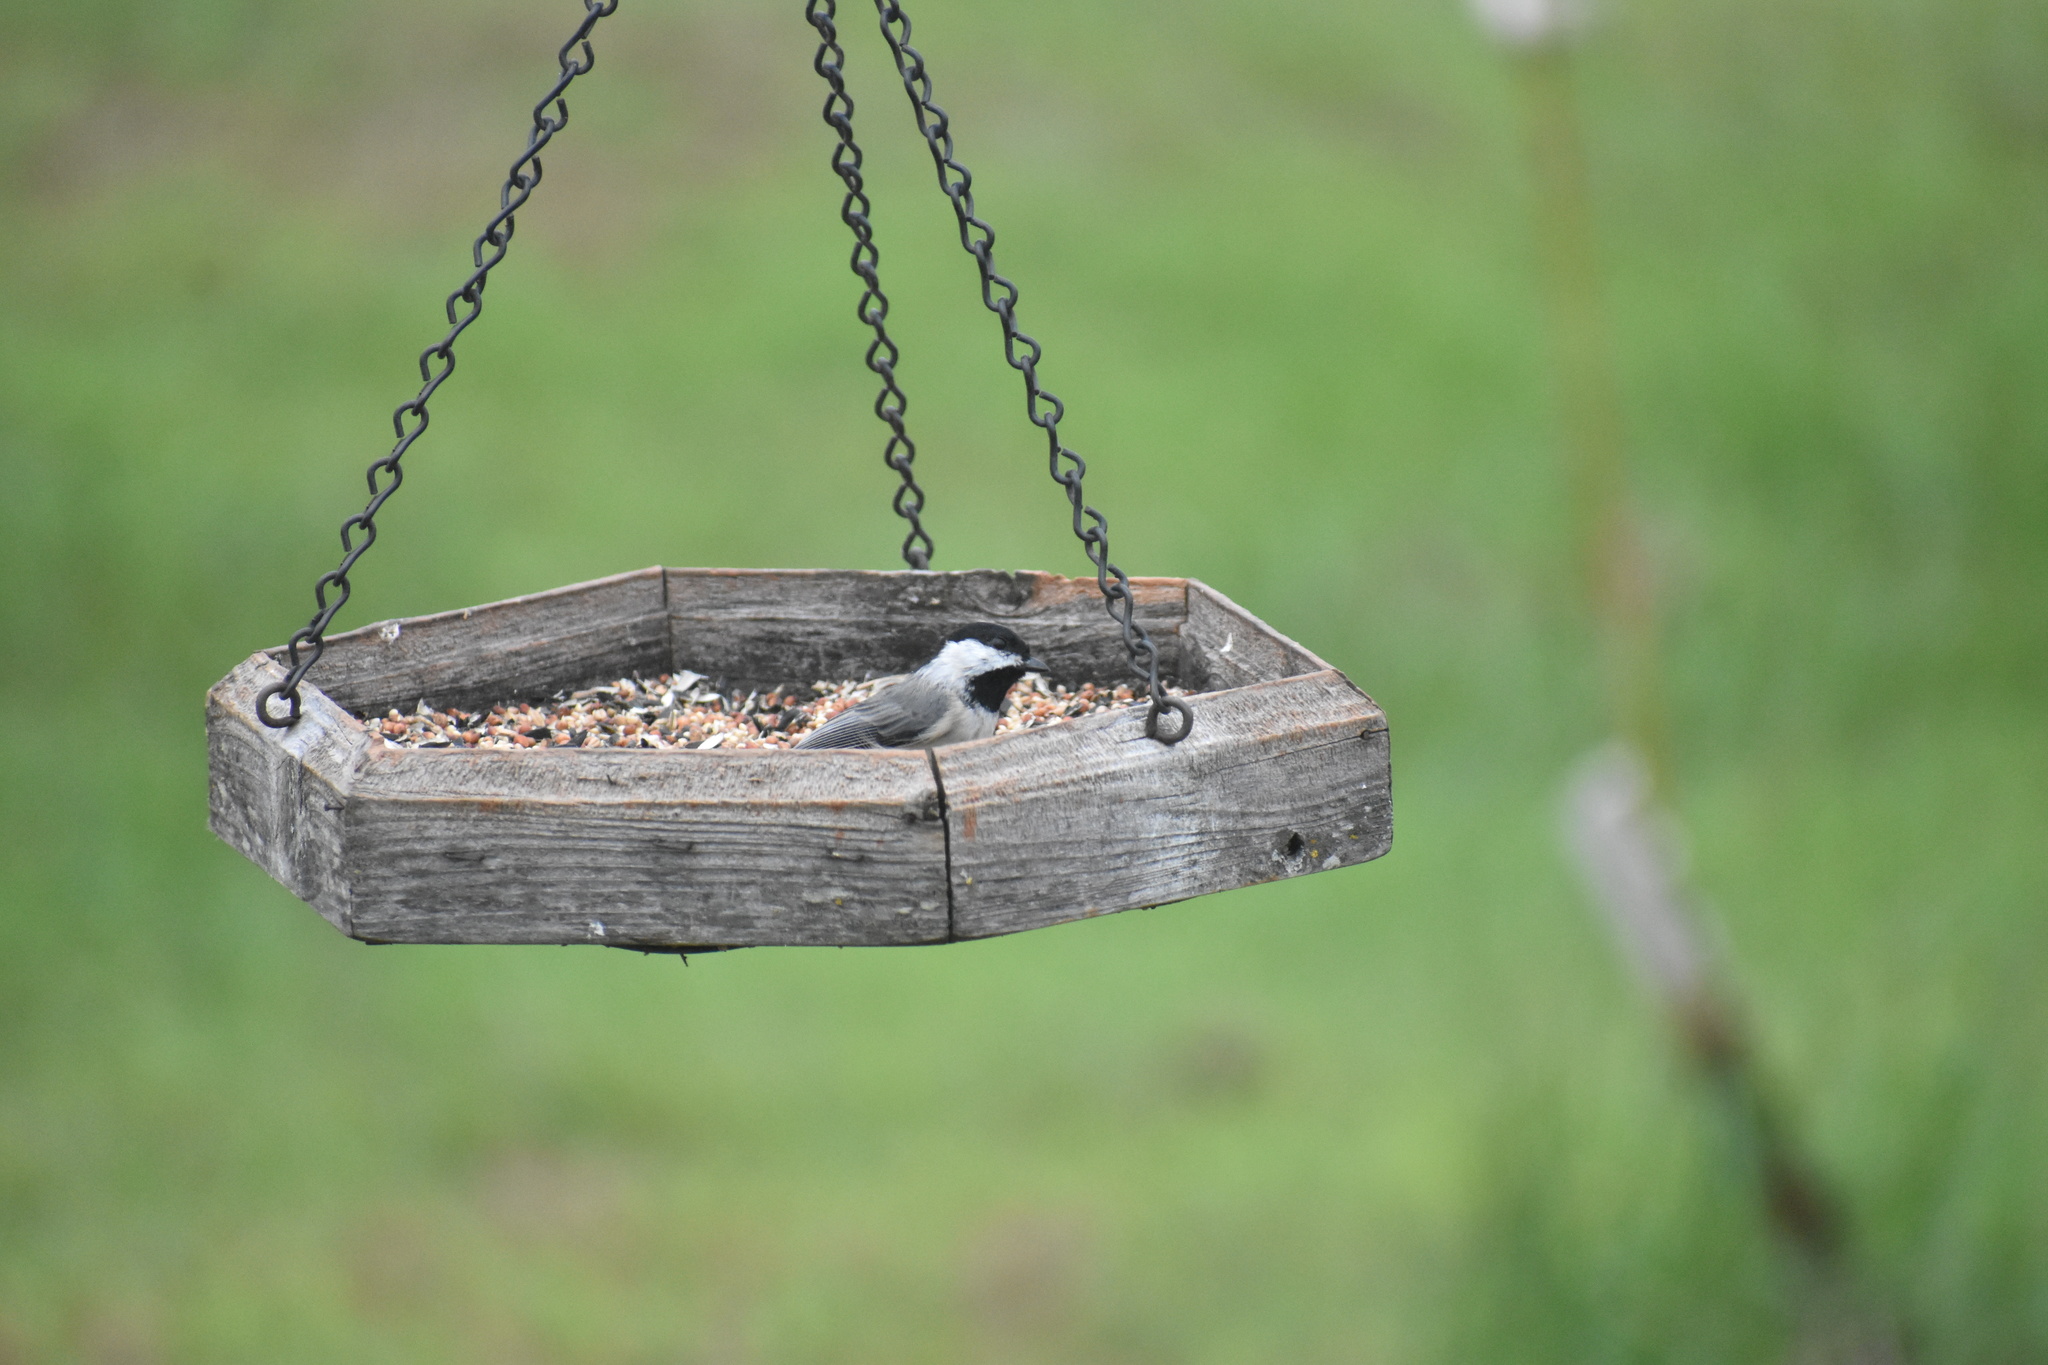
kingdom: Animalia
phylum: Chordata
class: Aves
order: Passeriformes
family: Paridae
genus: Poecile
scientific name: Poecile carolinensis
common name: Carolina chickadee
